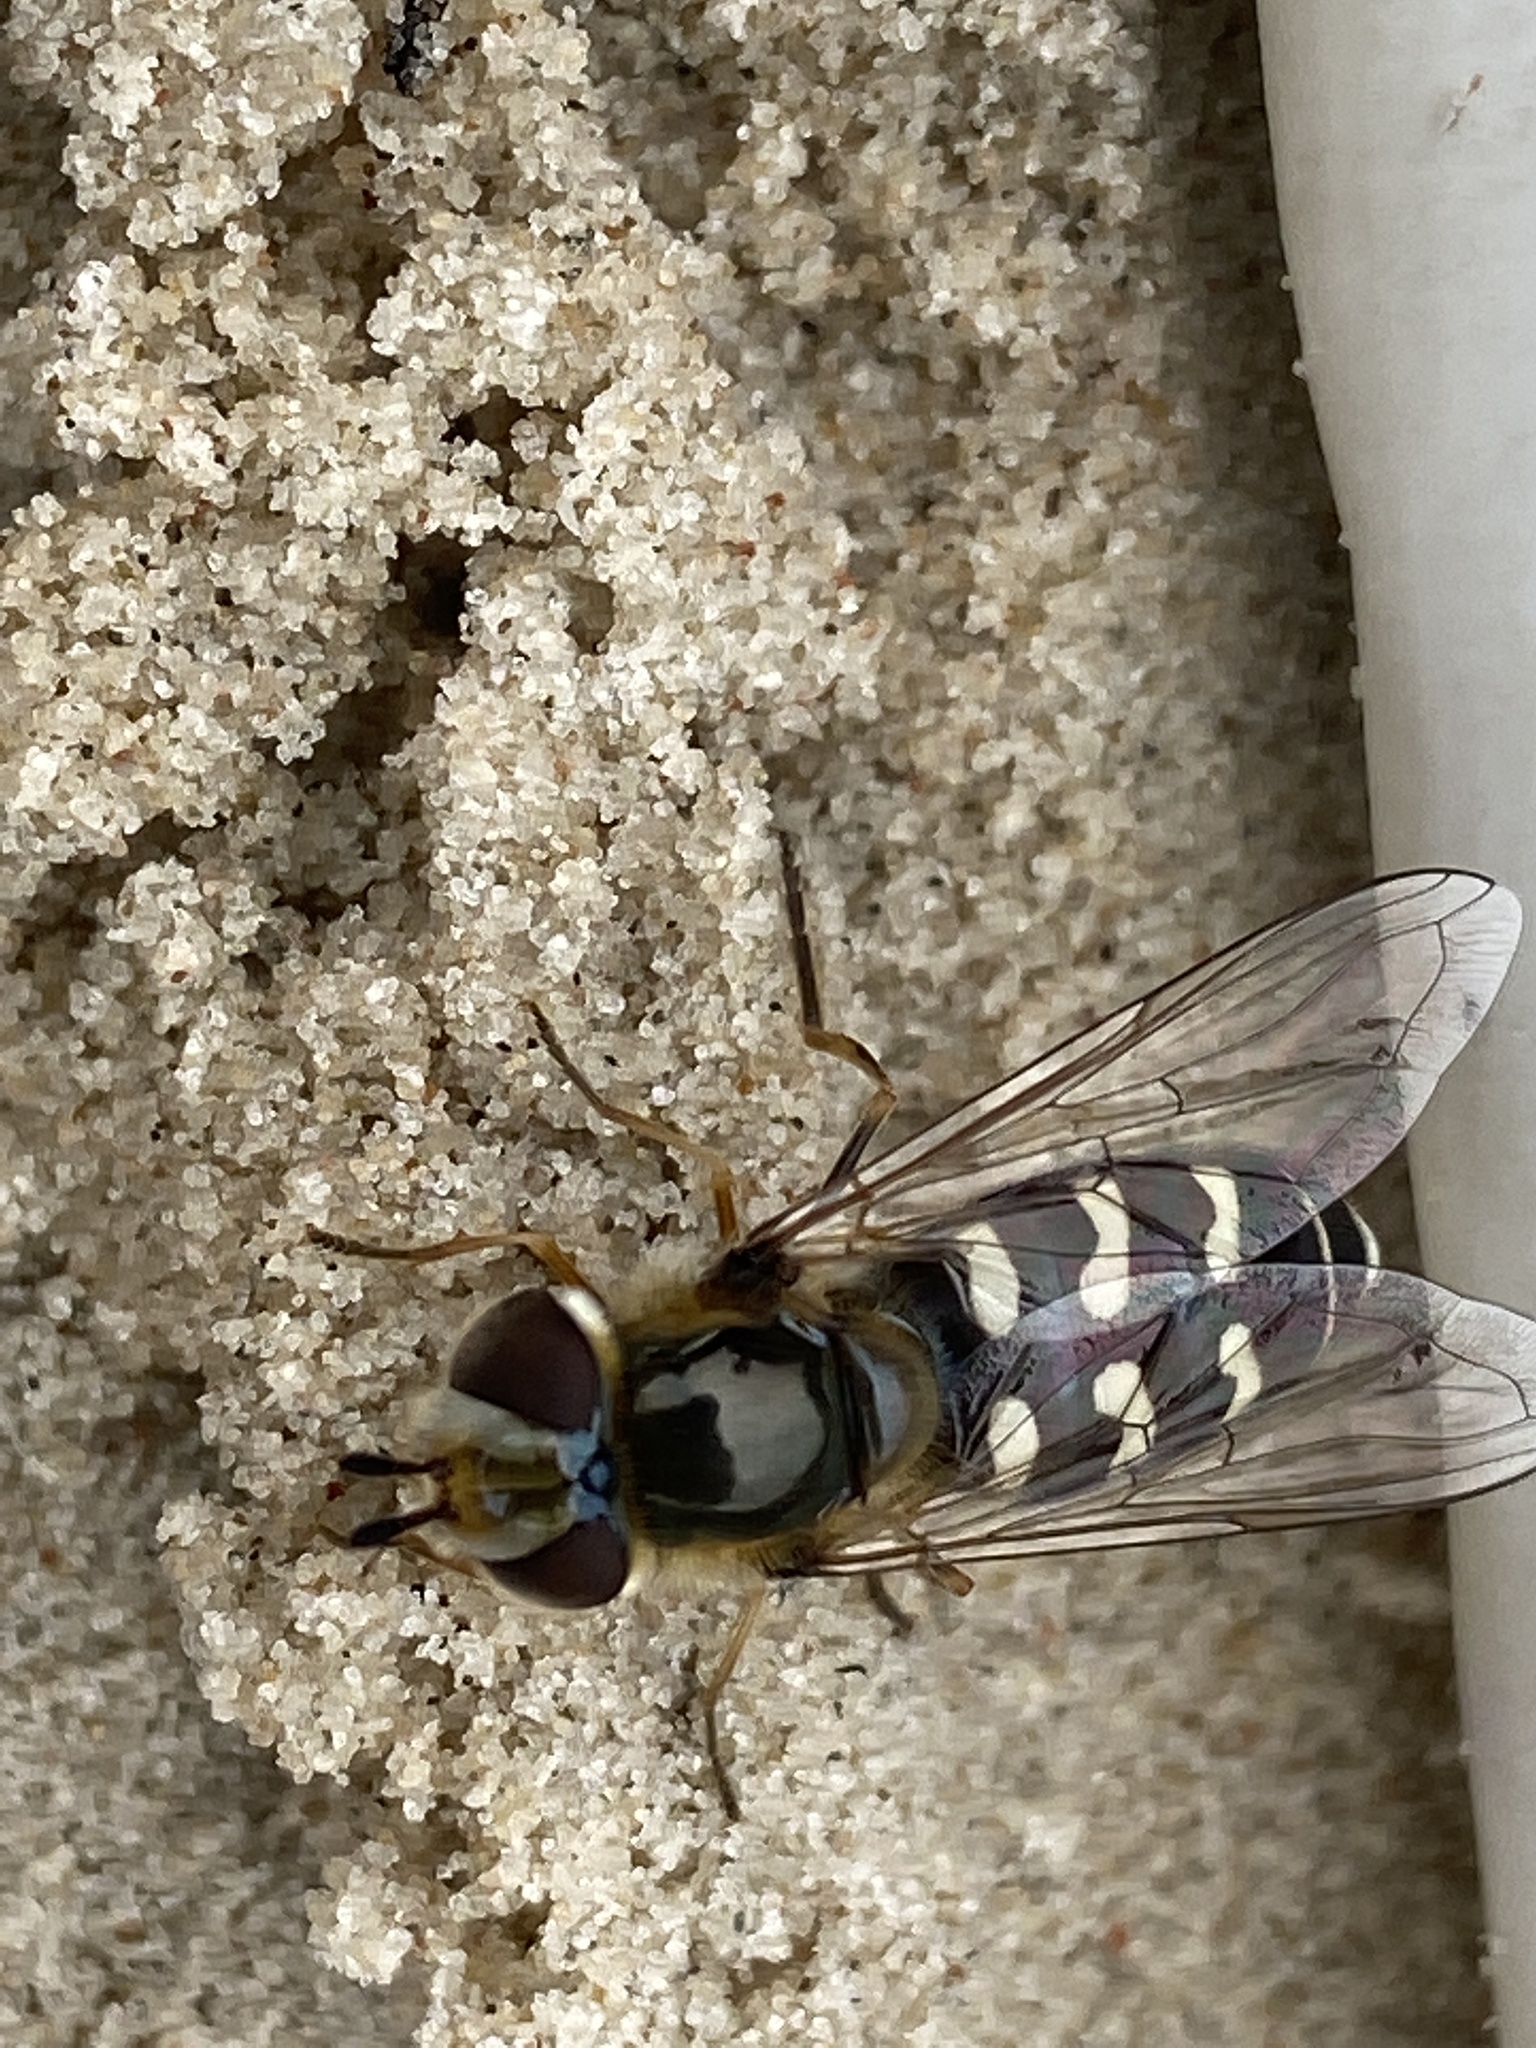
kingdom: Animalia
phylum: Arthropoda
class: Insecta
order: Diptera
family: Syrphidae
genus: Scaeva
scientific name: Scaeva pyrastri
